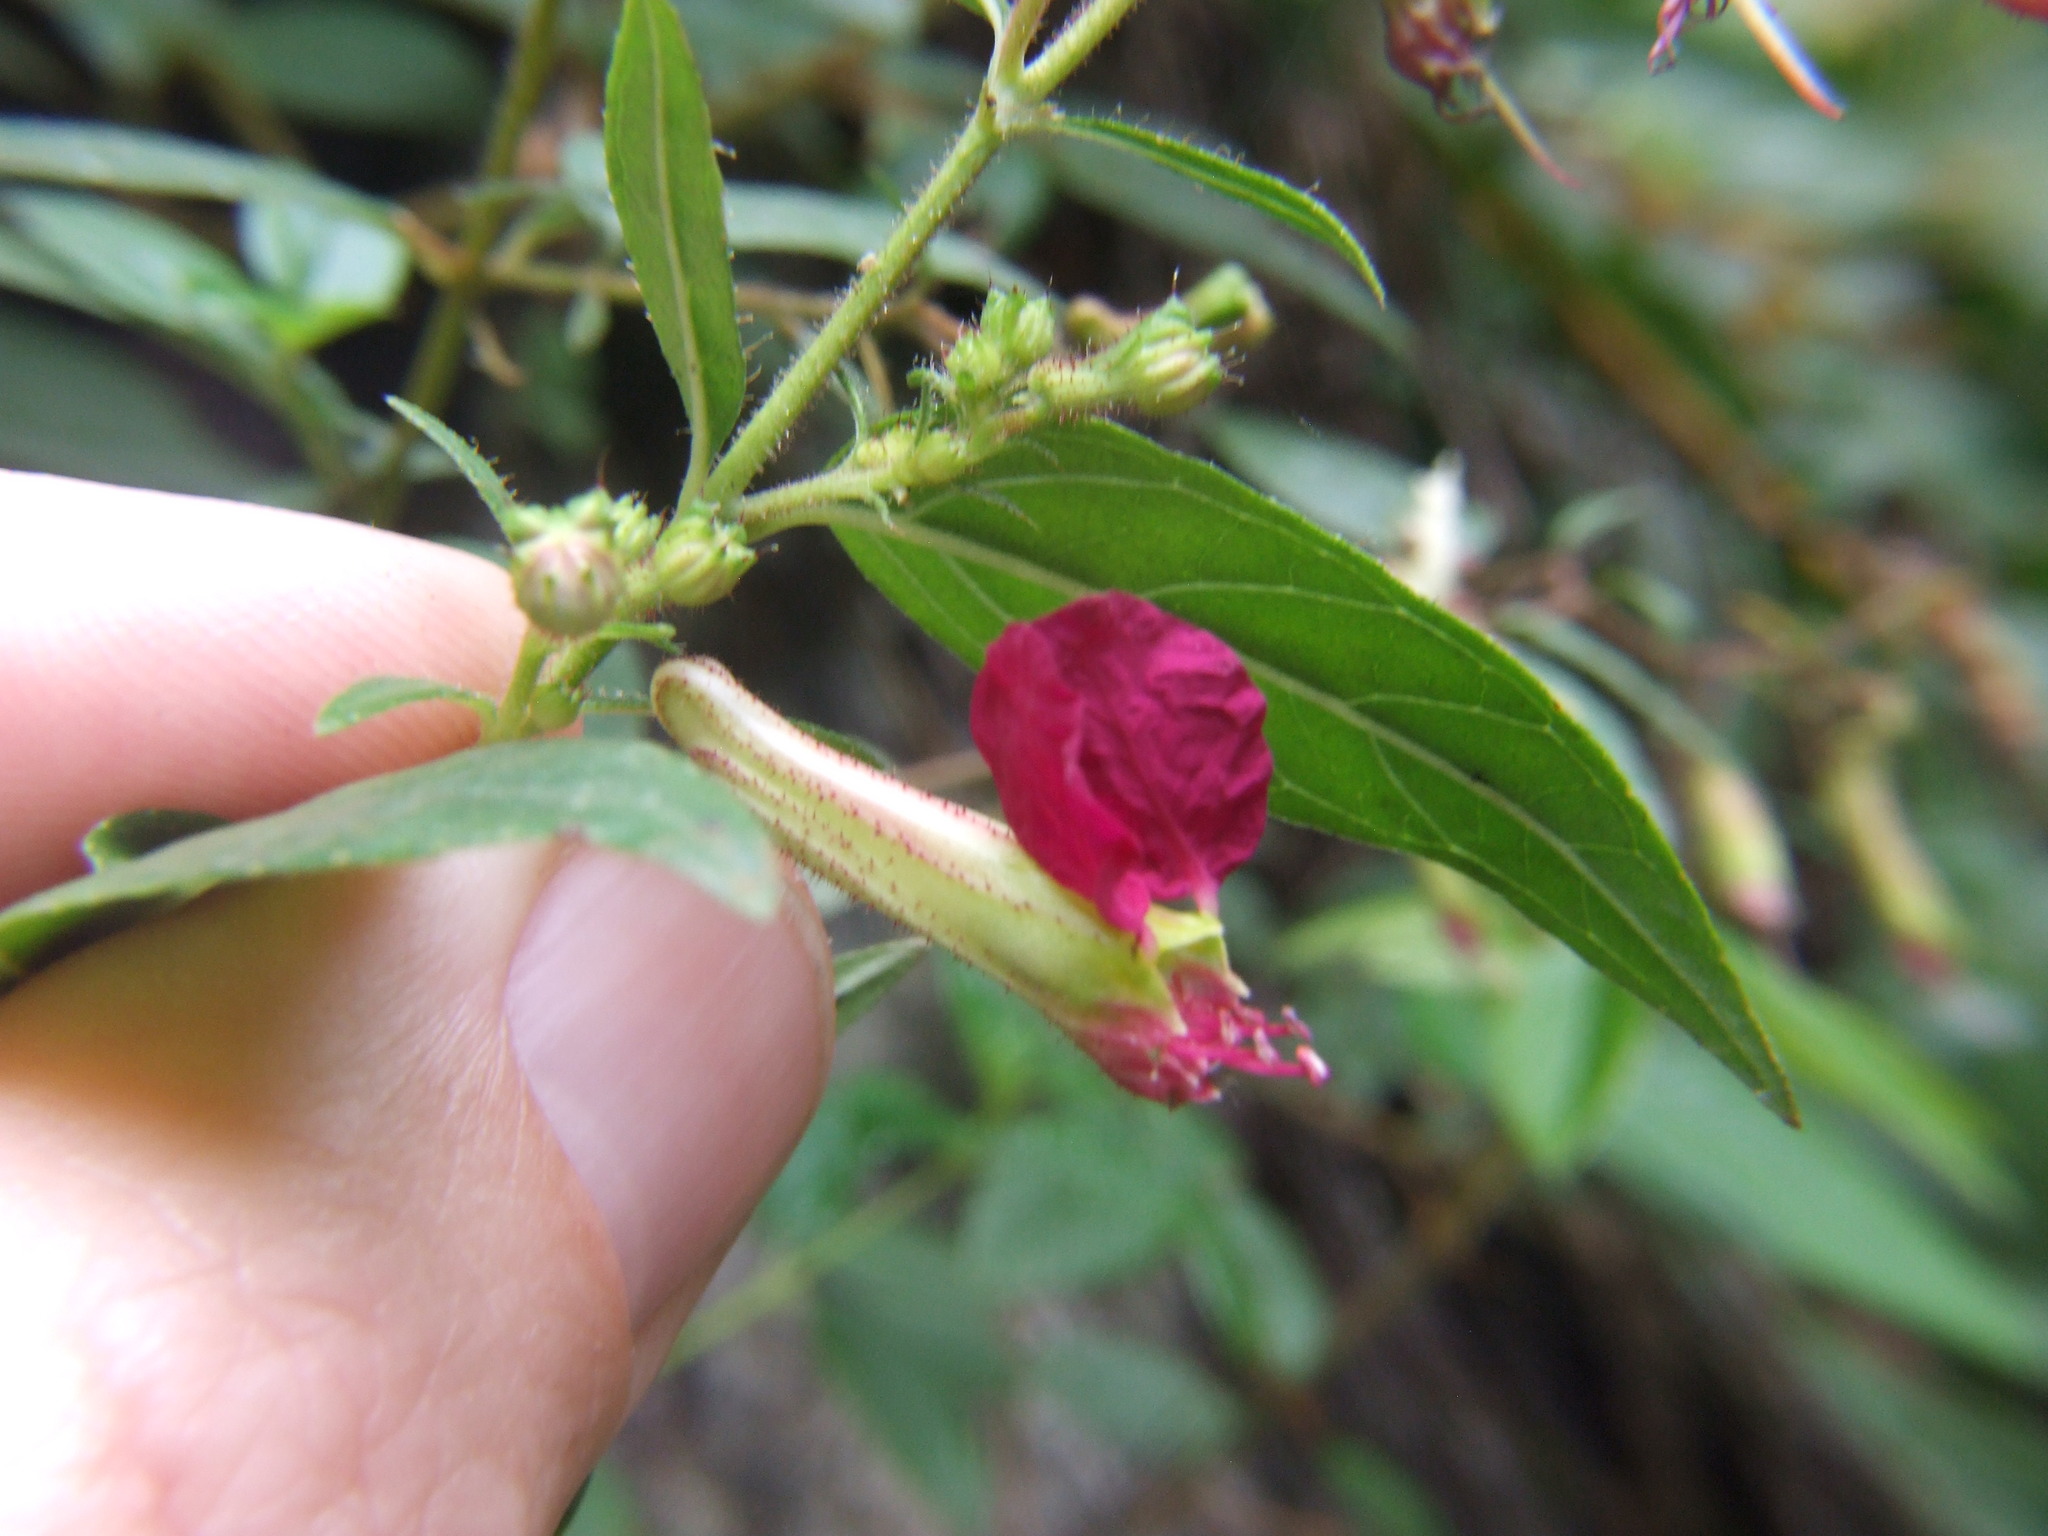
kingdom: Plantae
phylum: Tracheophyta
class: Magnoliopsida
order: Myrtales
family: Lythraceae
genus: Cuphea
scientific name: Cuphea cordata
